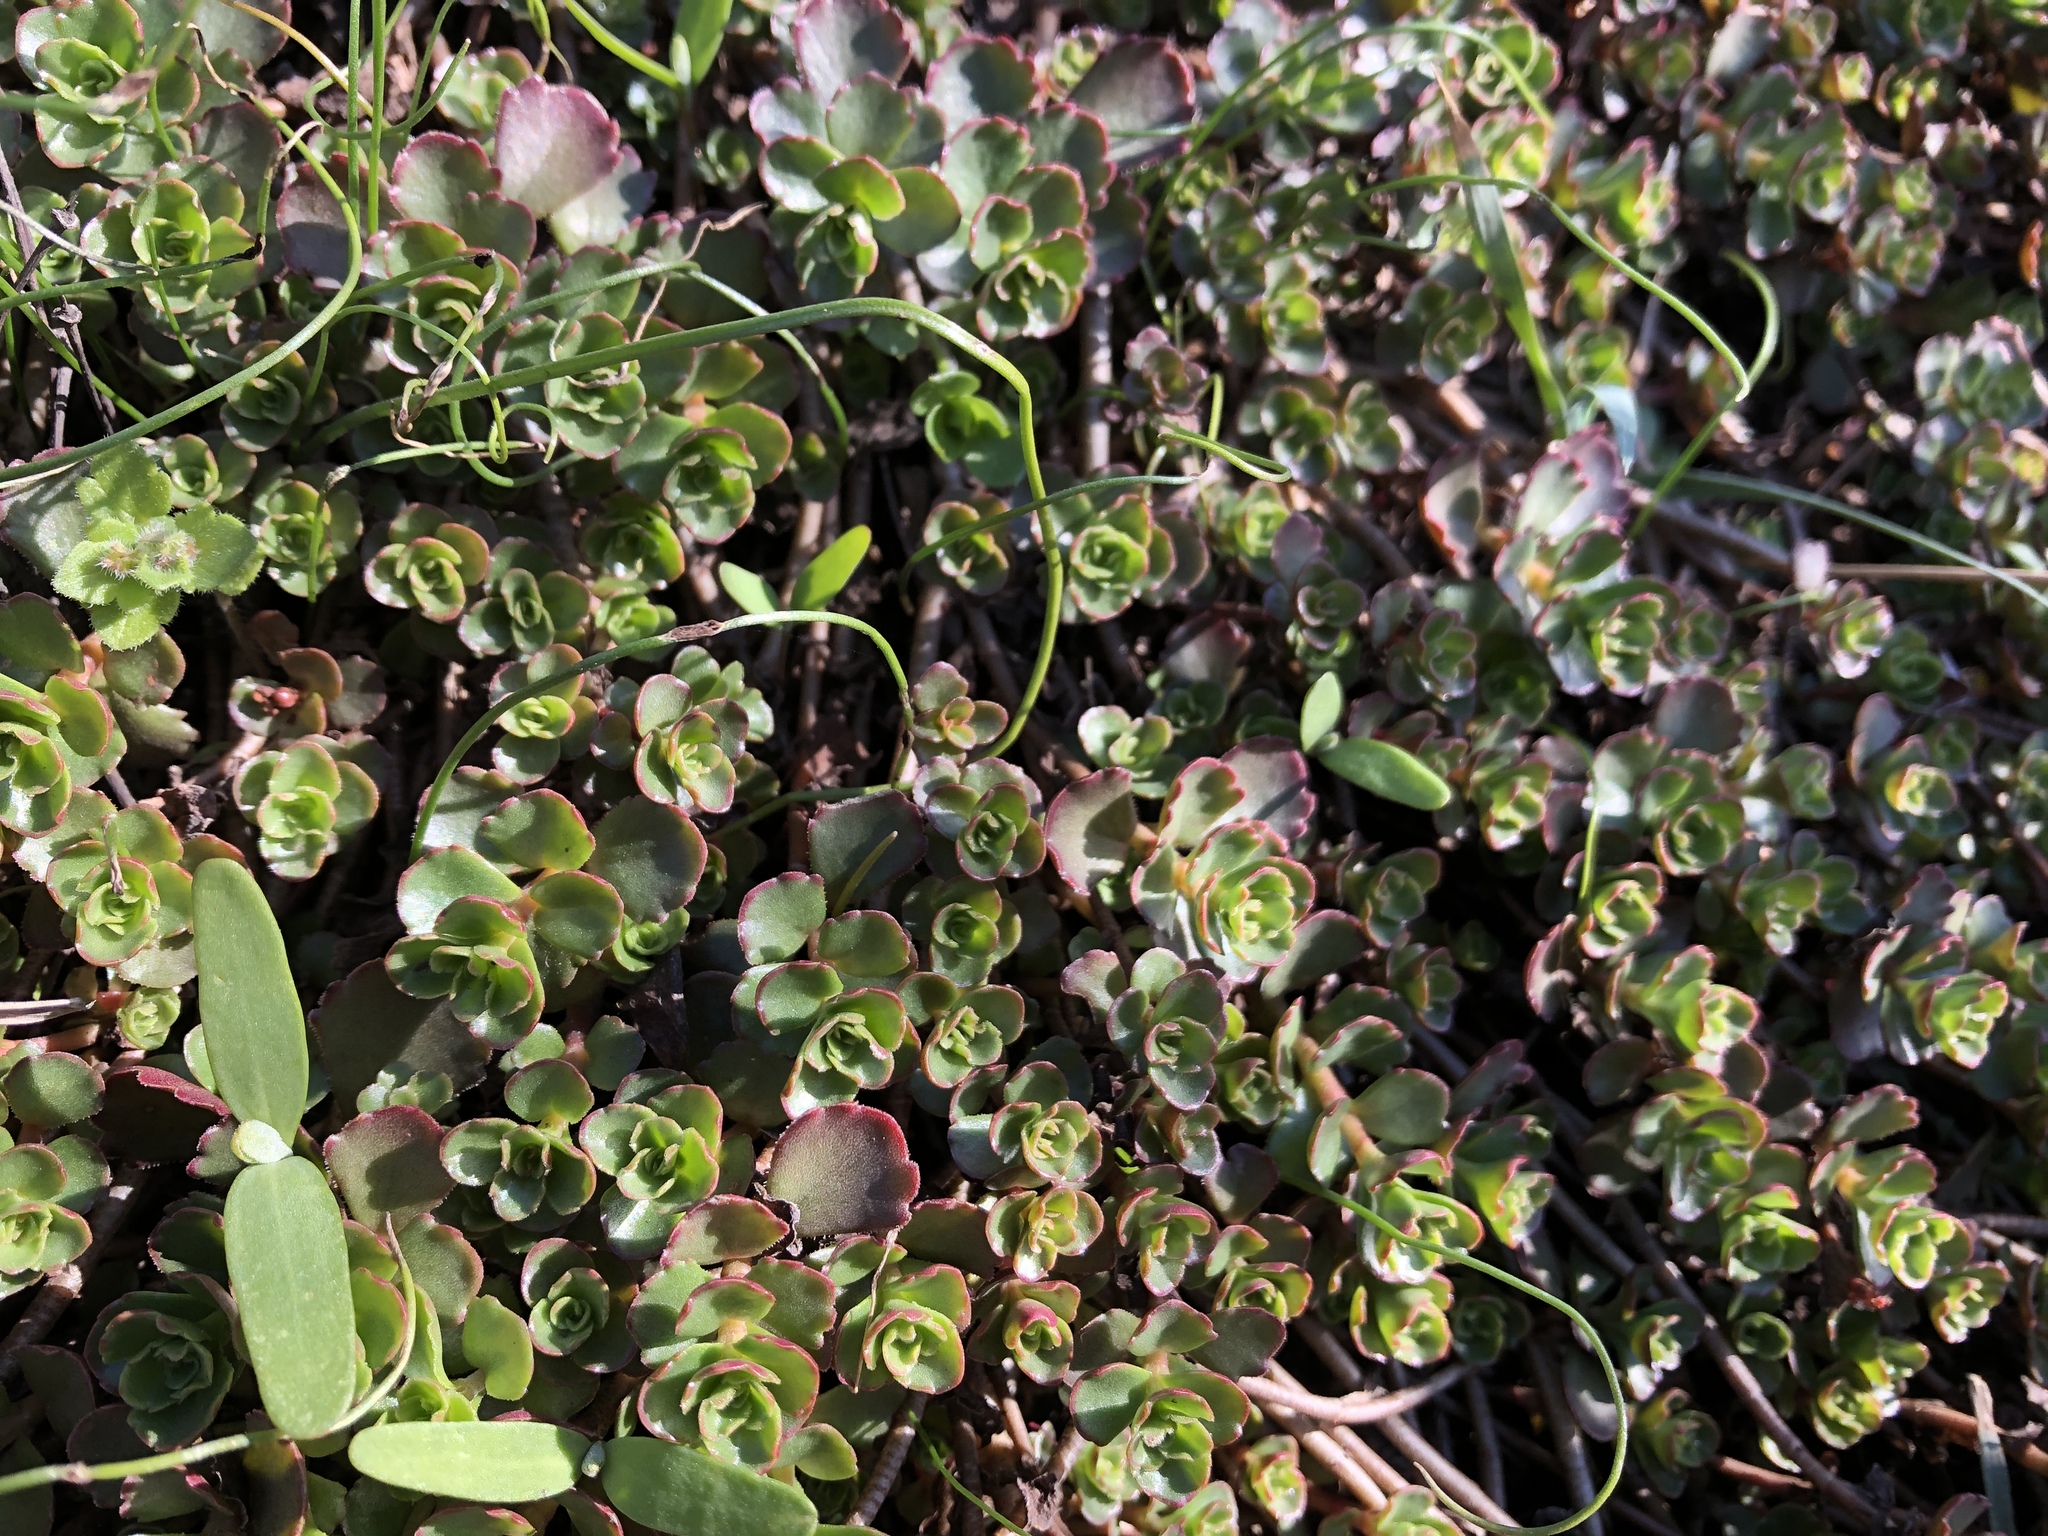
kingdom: Plantae
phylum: Tracheophyta
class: Magnoliopsida
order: Saxifragales
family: Crassulaceae
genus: Phedimus
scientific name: Phedimus spurius
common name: Caucasian stonecrop
